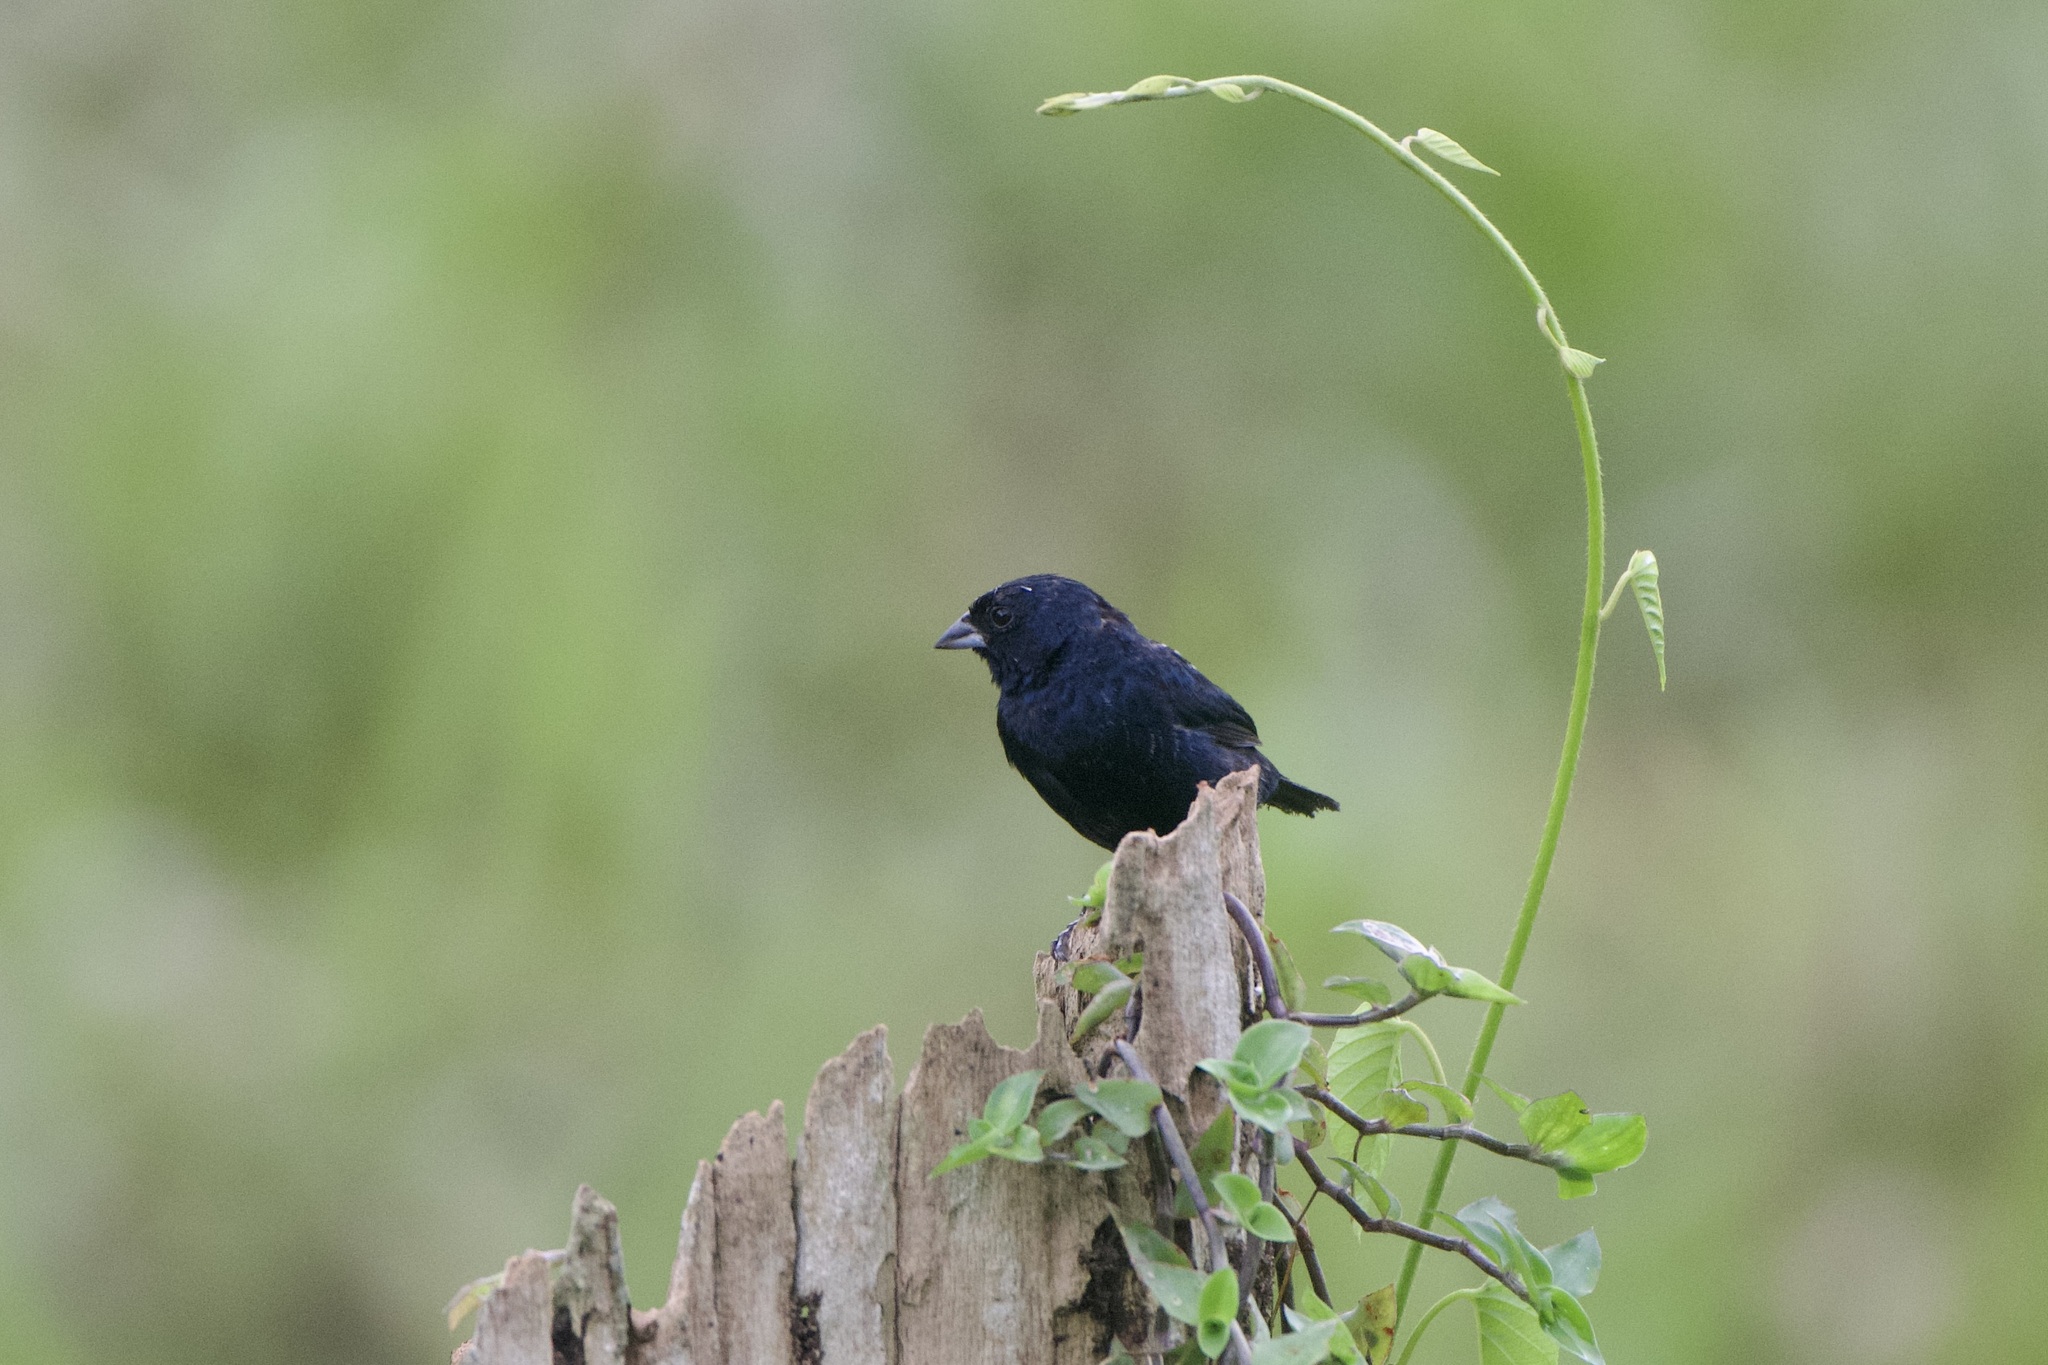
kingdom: Animalia
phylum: Chordata
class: Aves
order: Passeriformes
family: Thraupidae
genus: Volatinia
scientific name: Volatinia jacarina
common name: Blue-black grassquit
